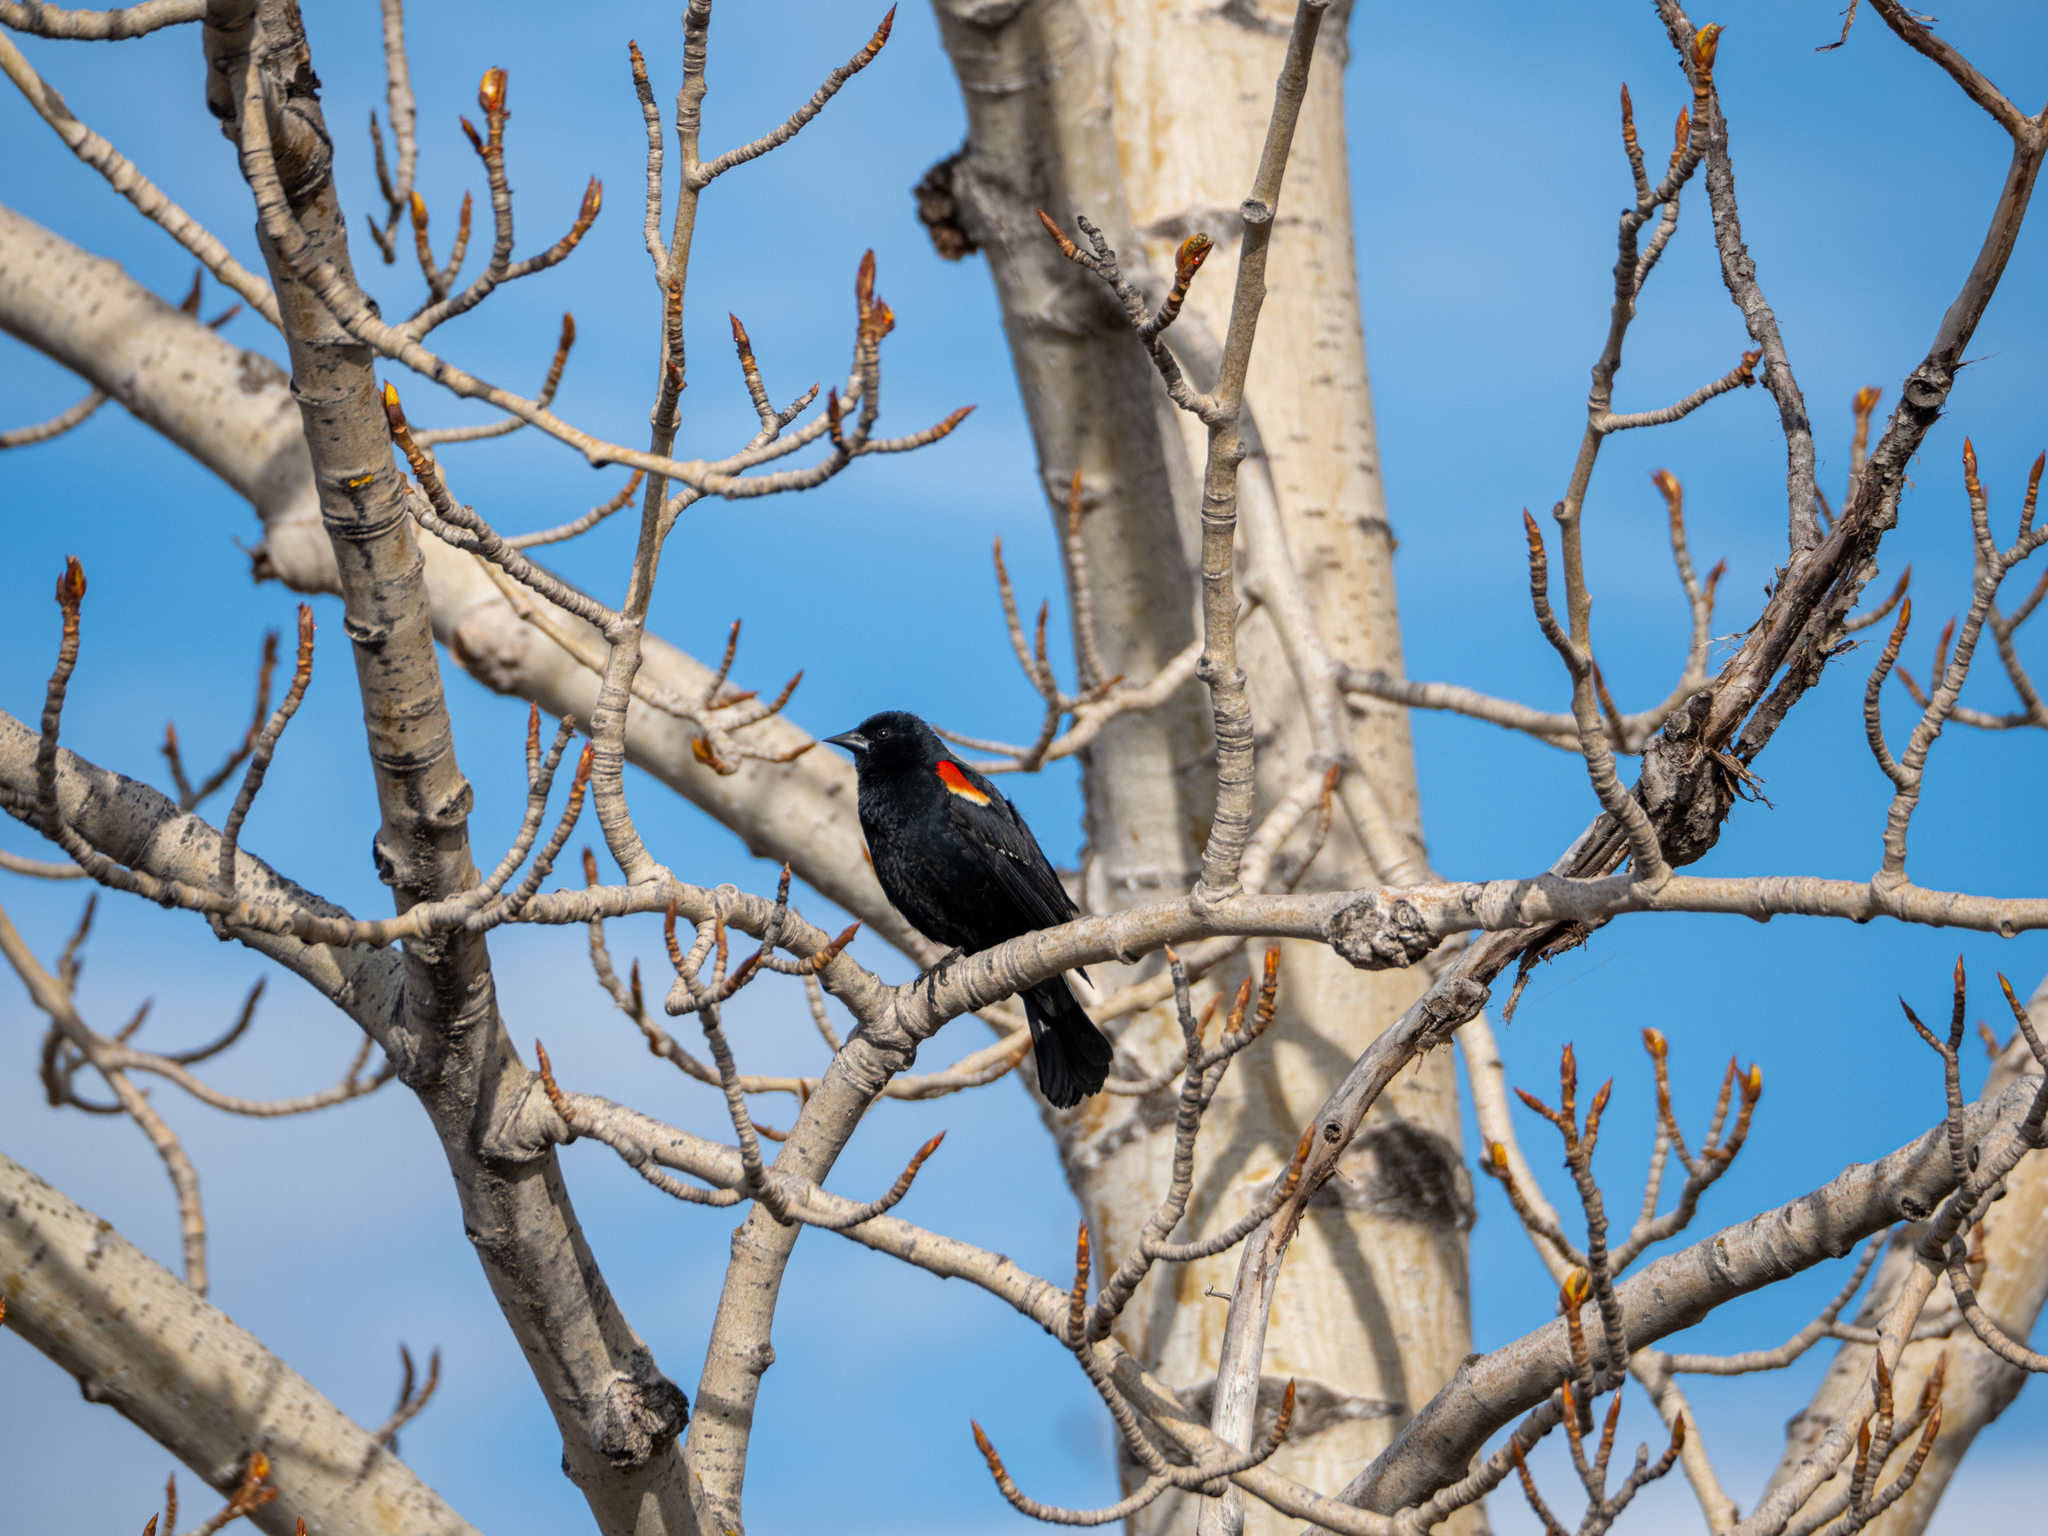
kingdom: Animalia
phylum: Chordata
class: Aves
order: Passeriformes
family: Icteridae
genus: Agelaius
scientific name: Agelaius phoeniceus
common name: Red-winged blackbird
